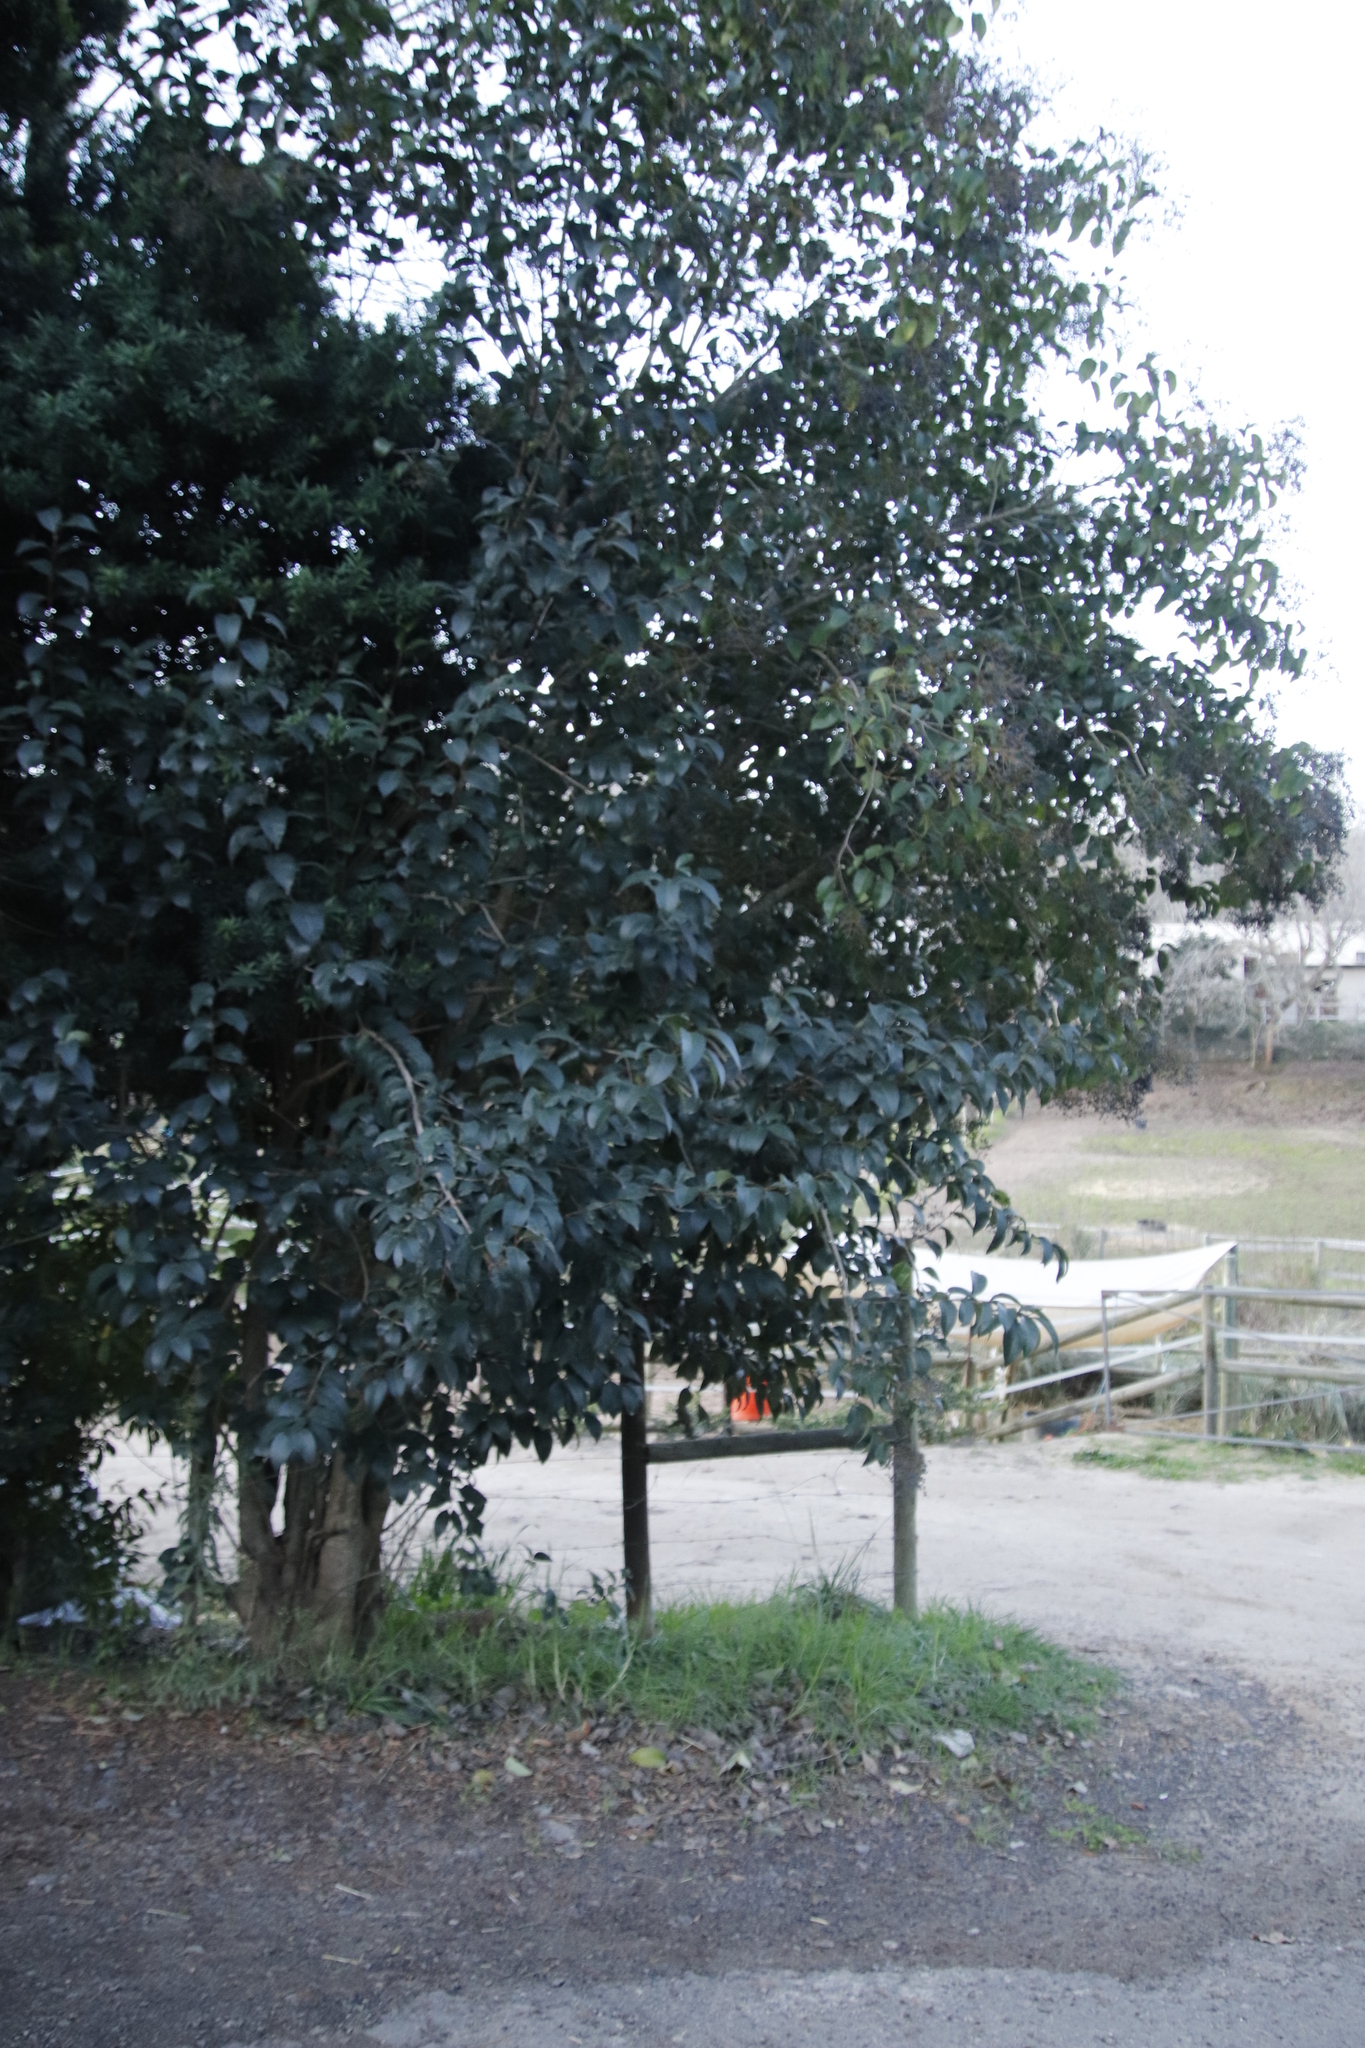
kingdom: Plantae
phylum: Tracheophyta
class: Magnoliopsida
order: Lamiales
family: Oleaceae
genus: Ligustrum
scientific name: Ligustrum lucidum
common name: Glossy privet
